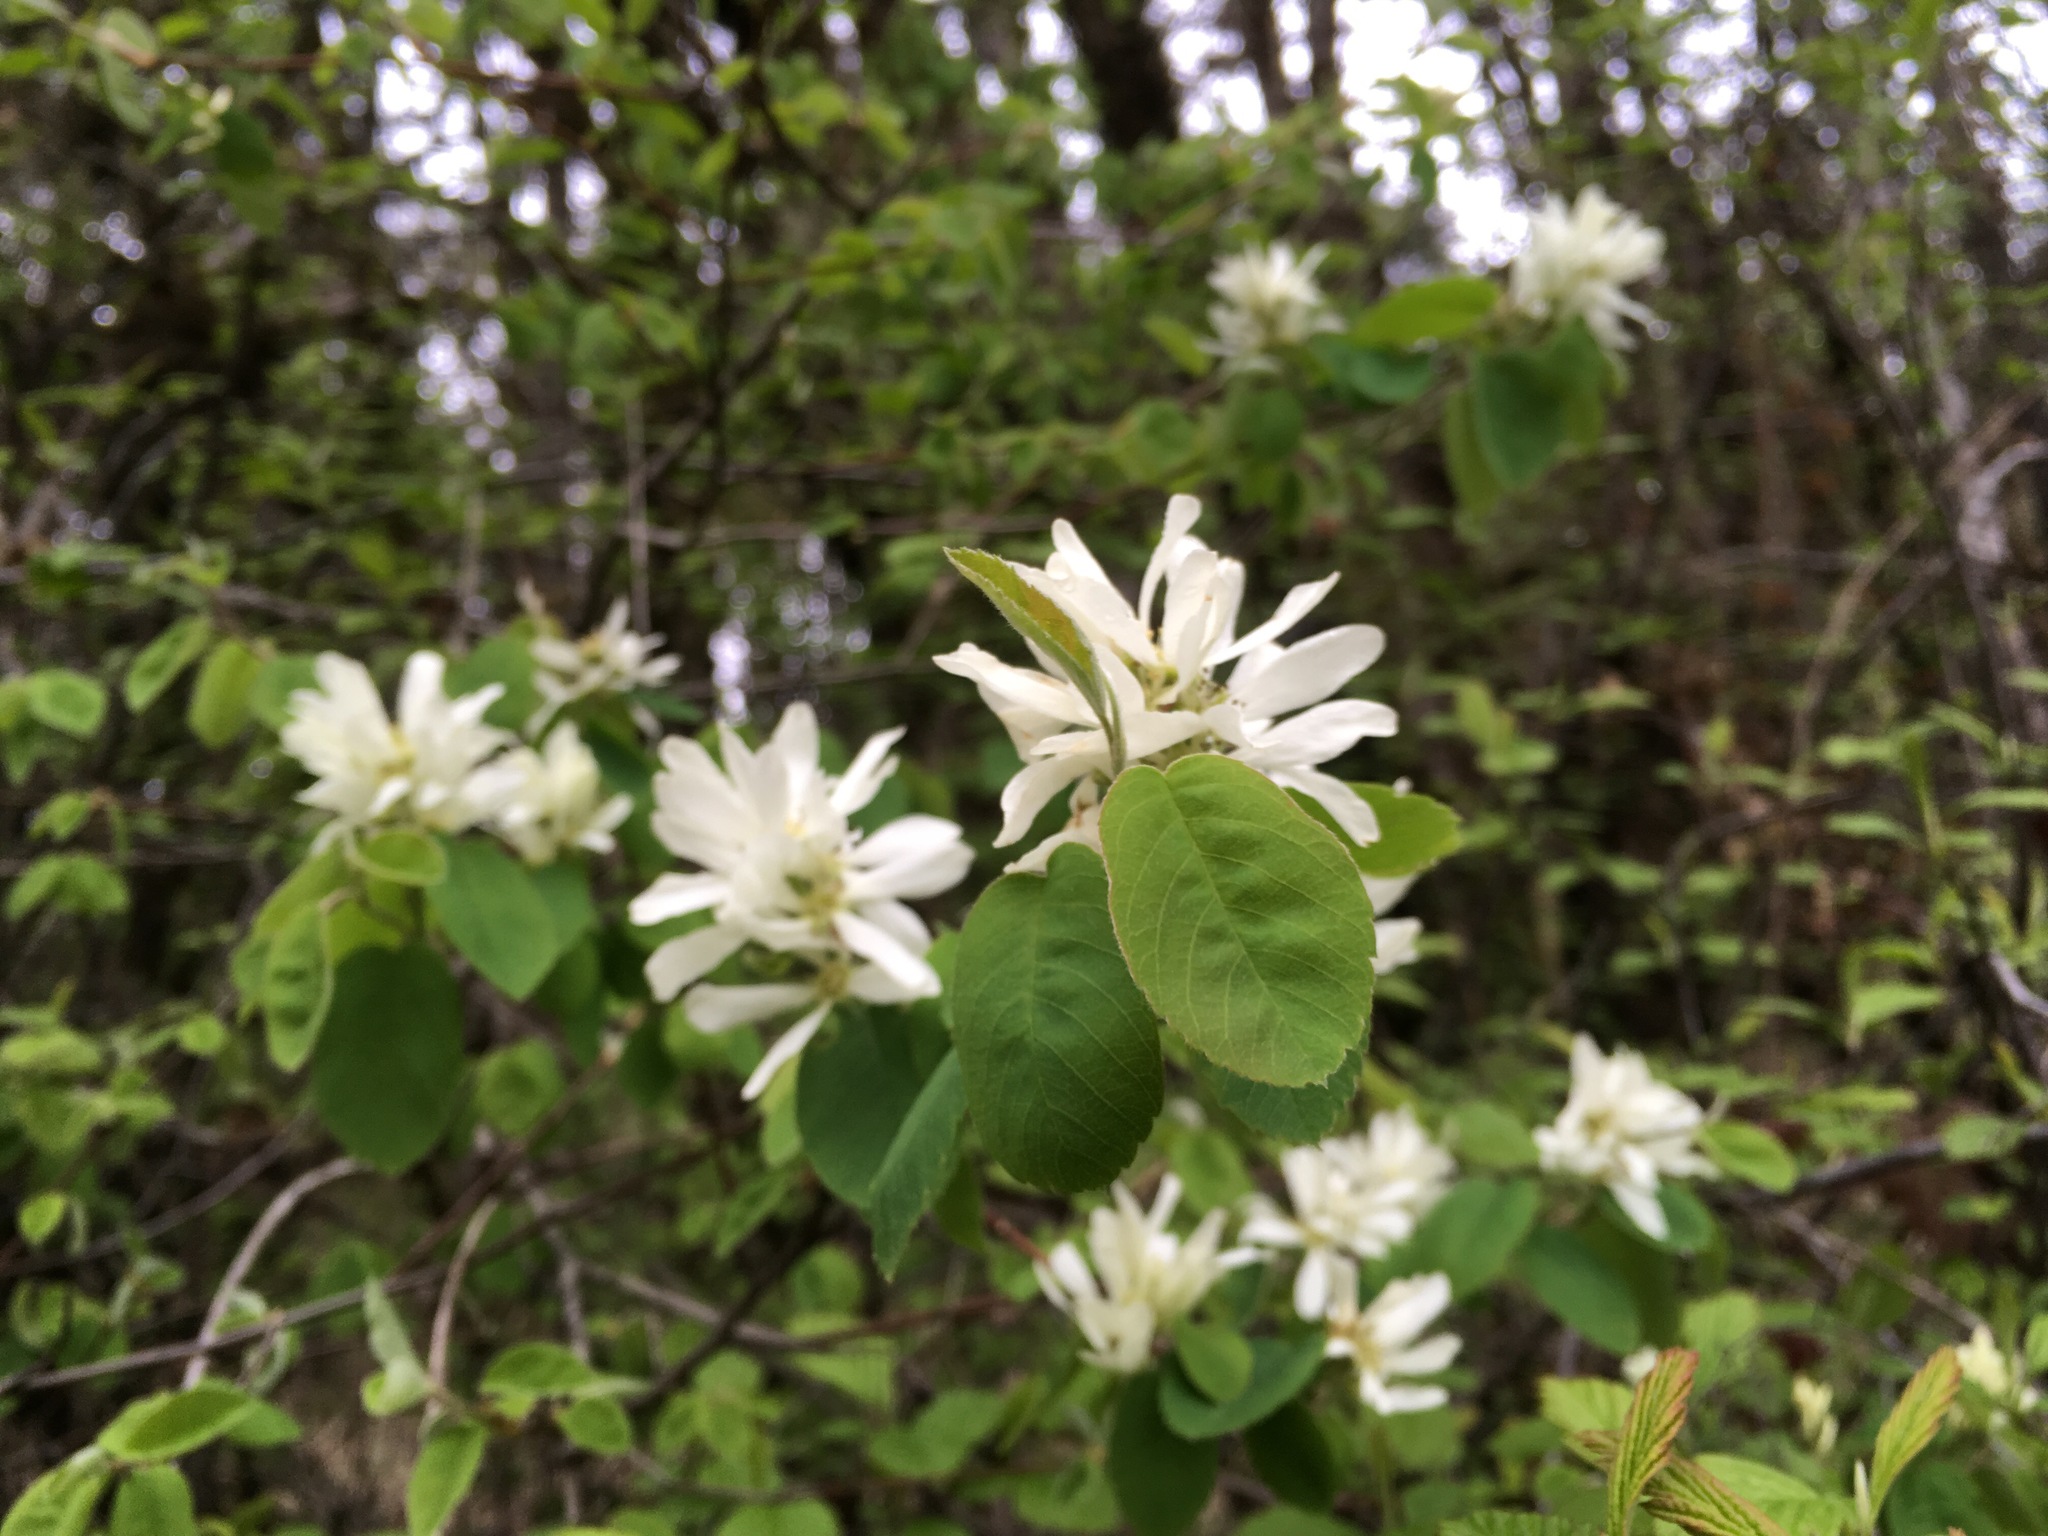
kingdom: Plantae
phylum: Tracheophyta
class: Magnoliopsida
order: Rosales
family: Rosaceae
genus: Amelanchier
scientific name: Amelanchier alnifolia
